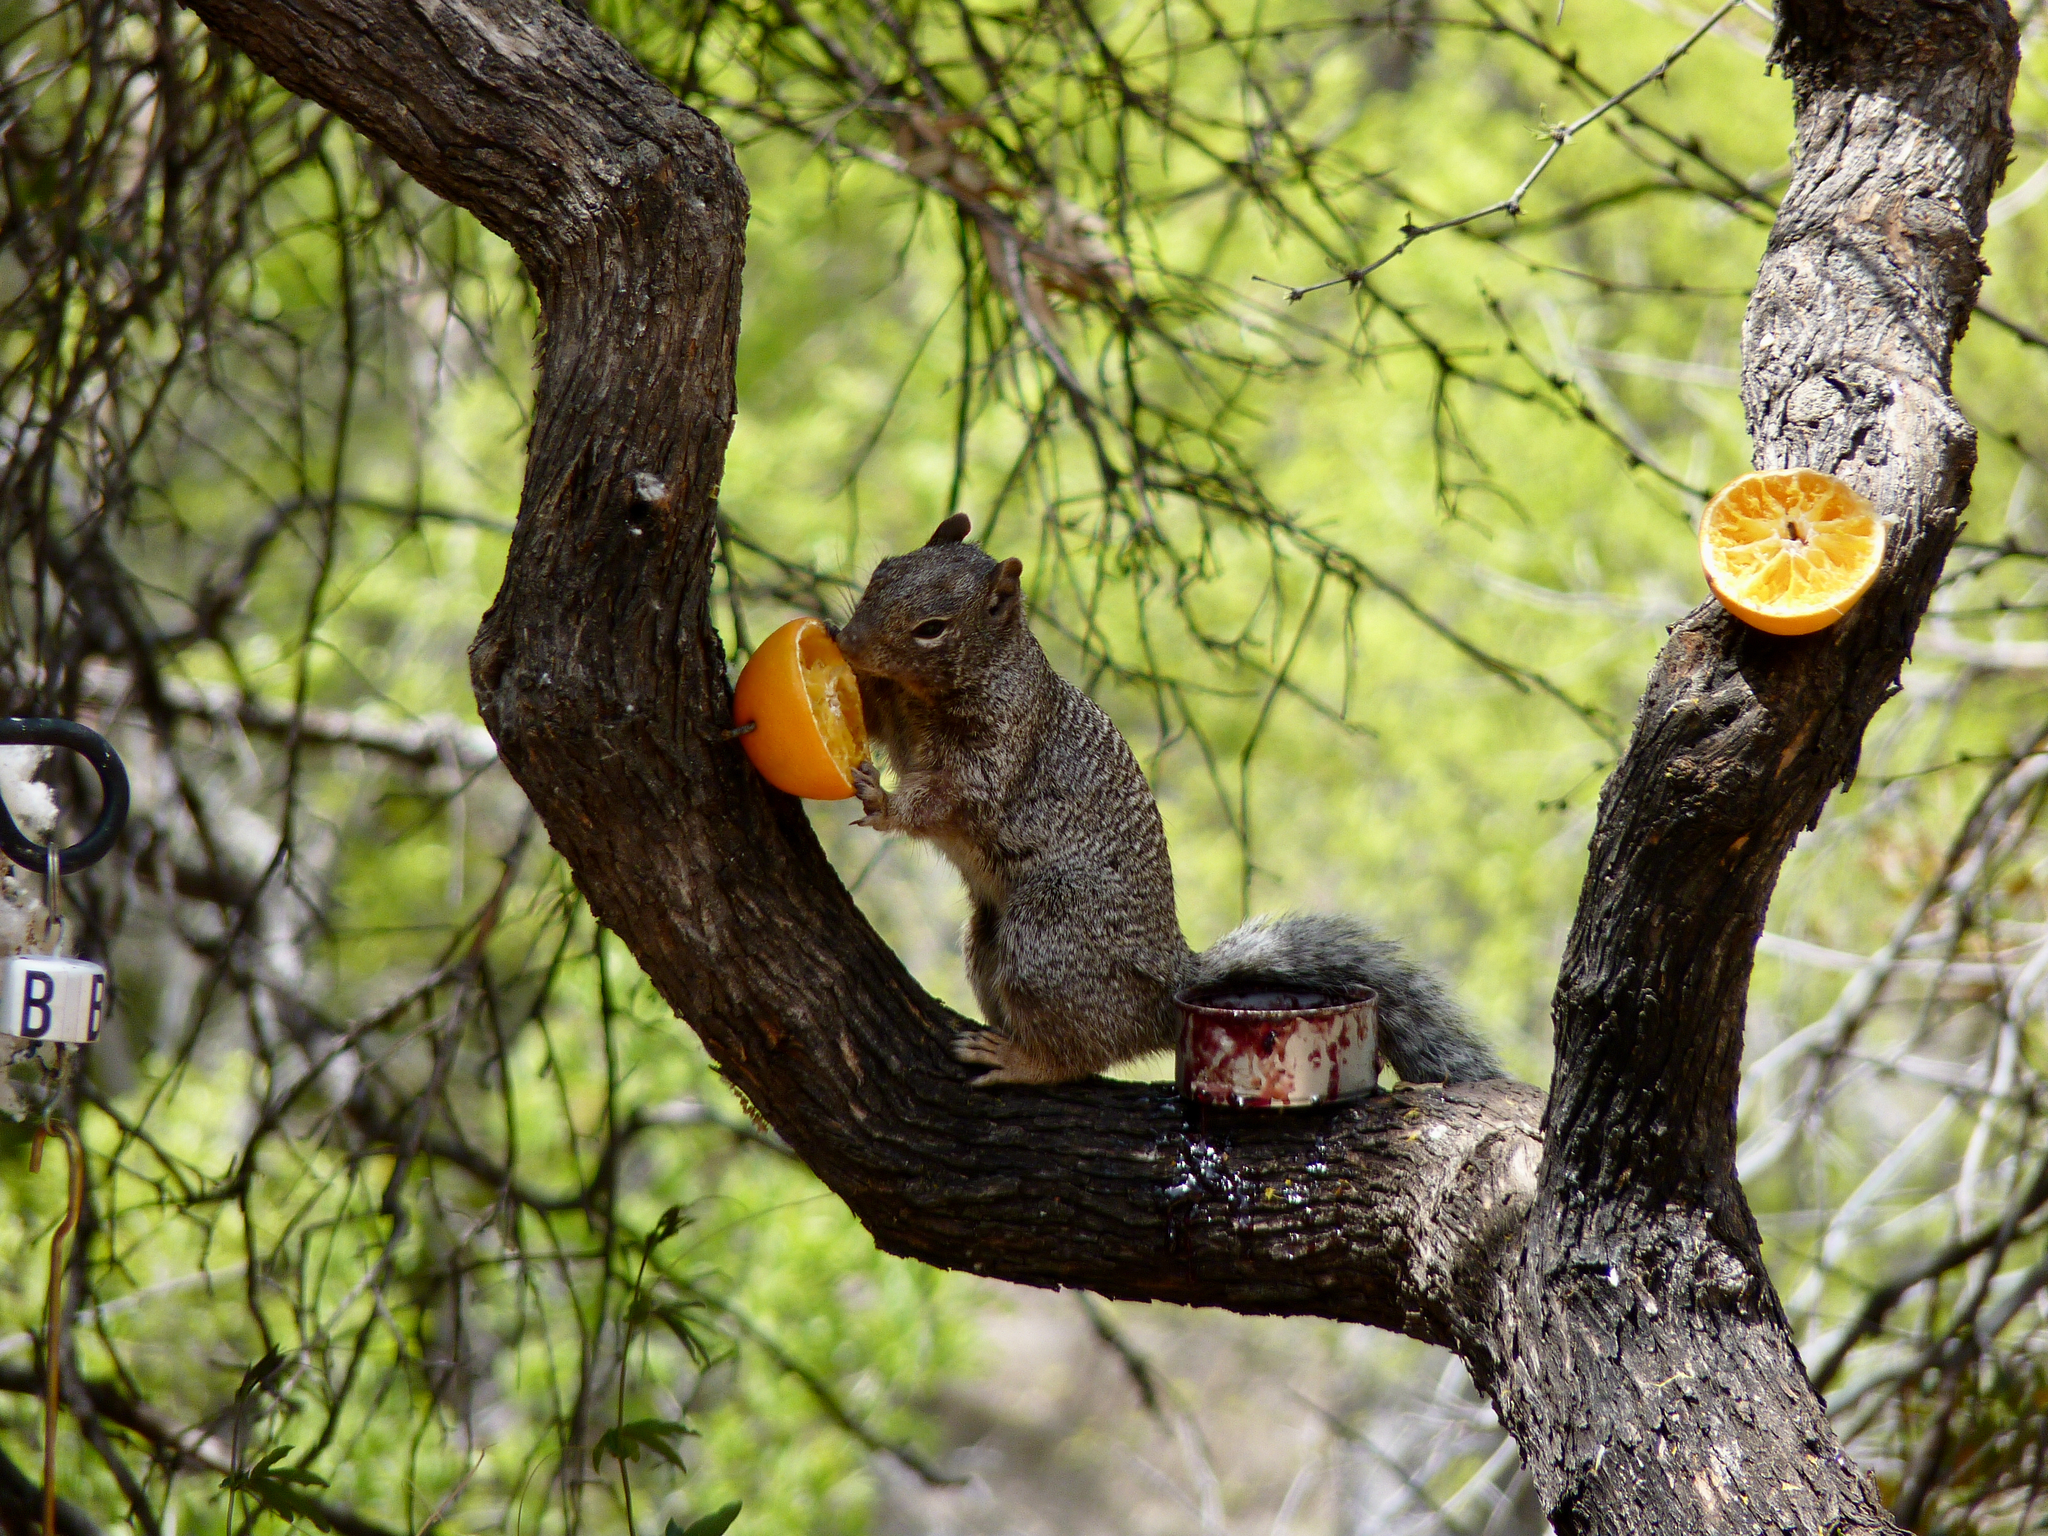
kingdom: Animalia
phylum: Chordata
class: Mammalia
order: Rodentia
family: Sciuridae
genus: Otospermophilus
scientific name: Otospermophilus variegatus
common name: Rock squirrel
